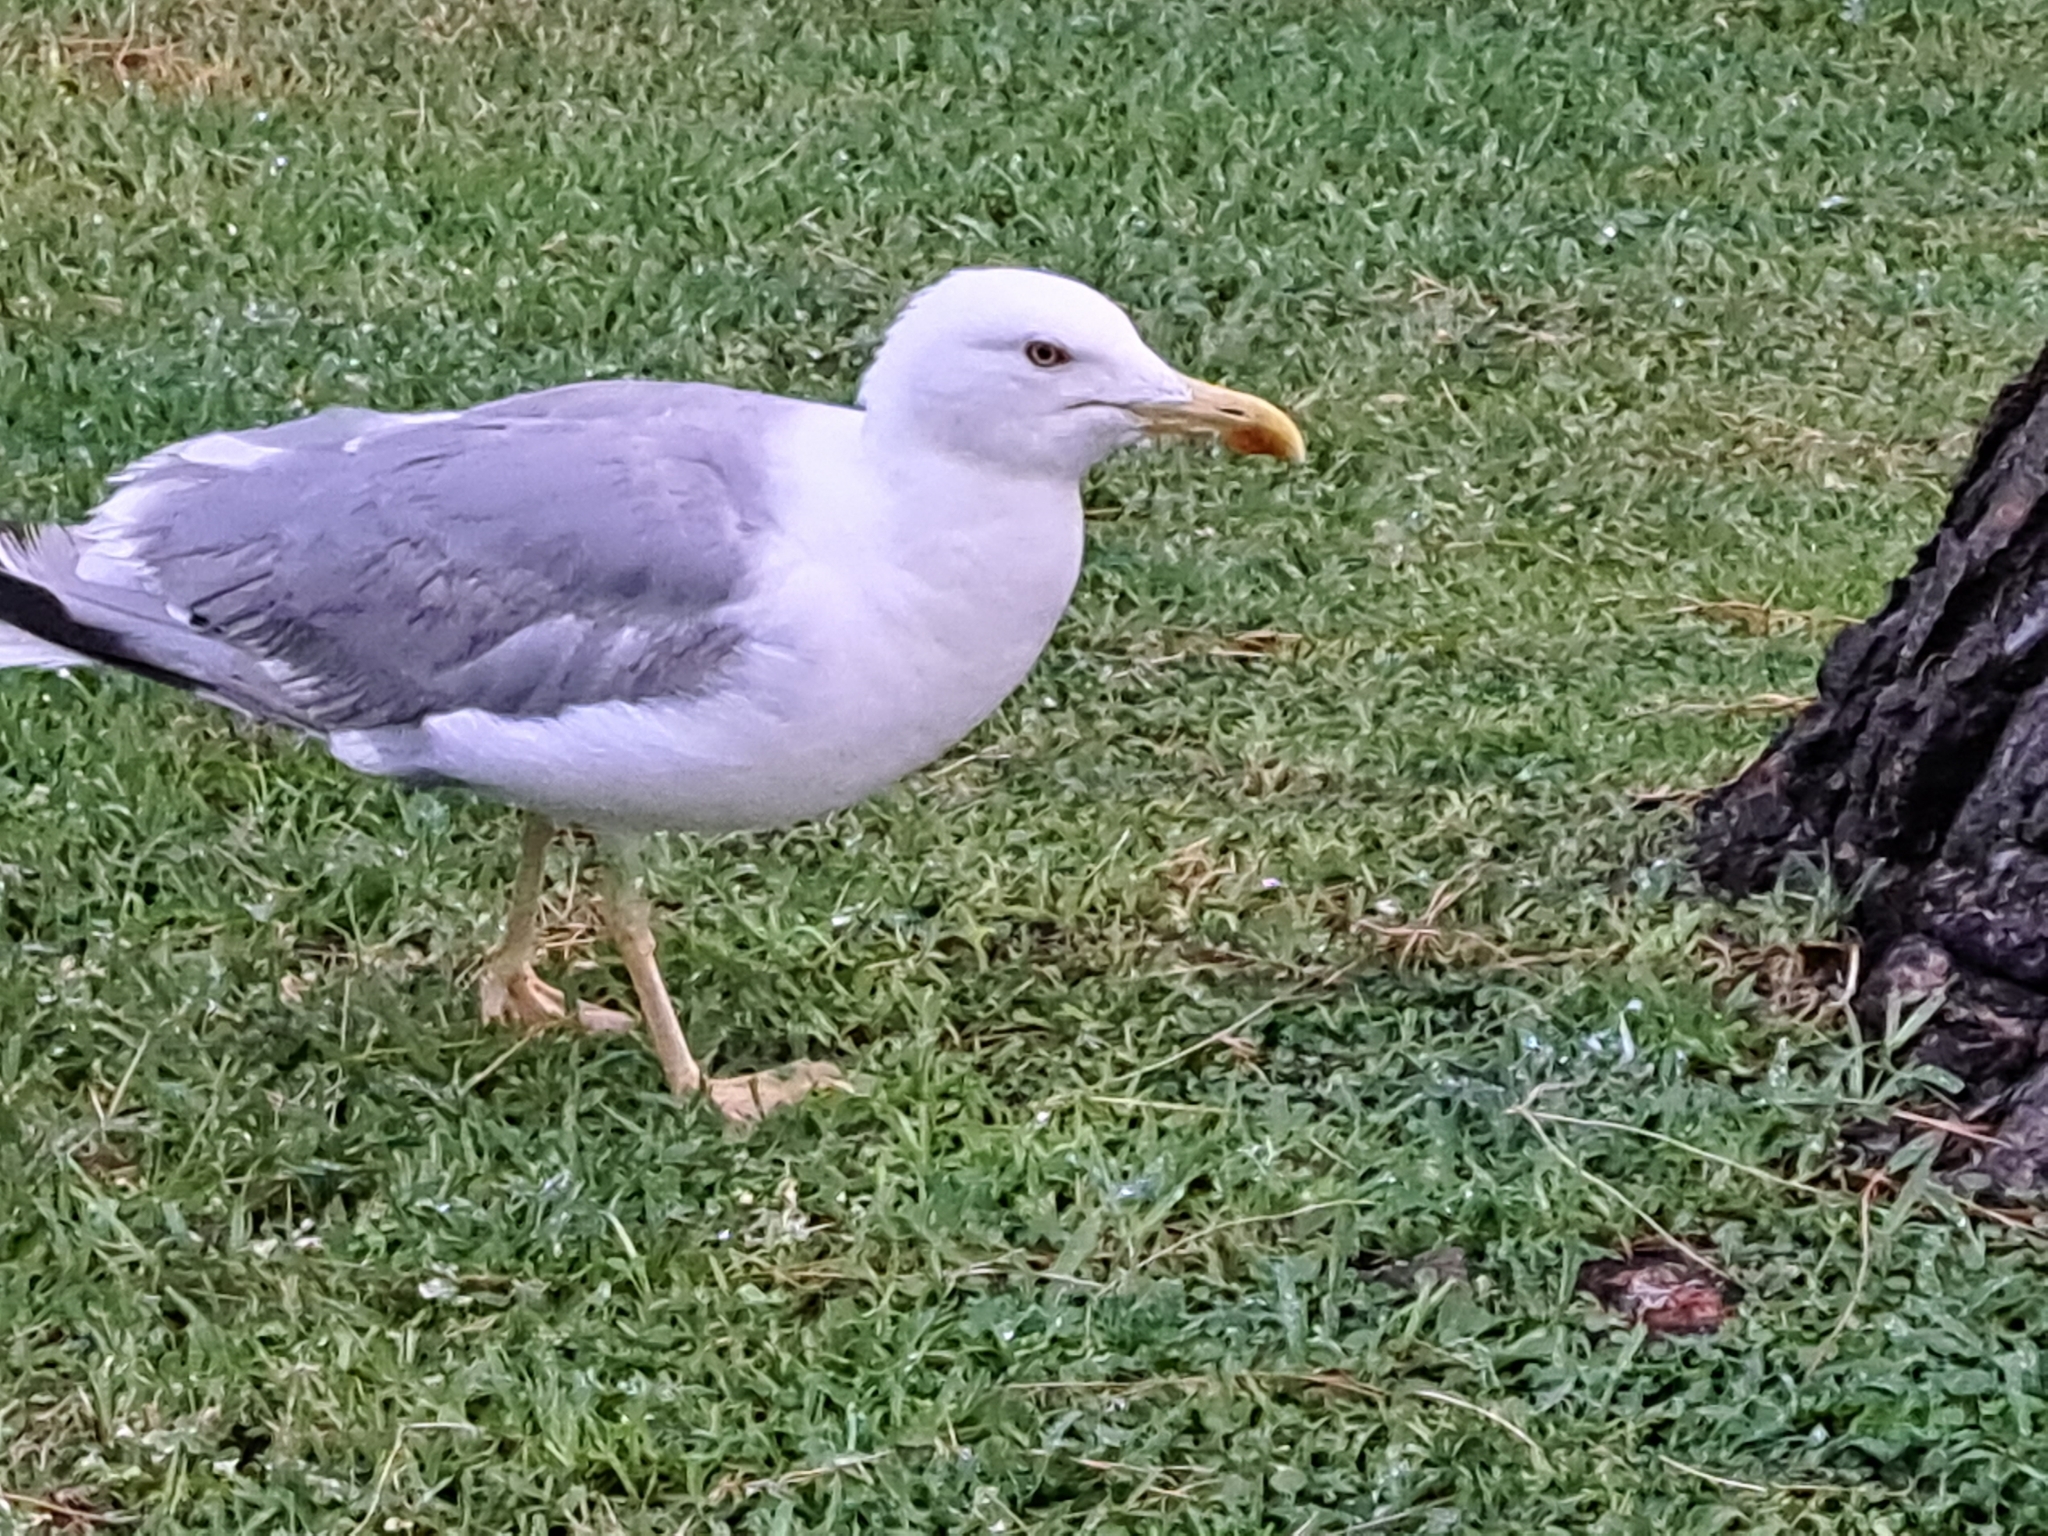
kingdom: Animalia
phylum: Chordata
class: Aves
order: Charadriiformes
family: Laridae
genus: Larus
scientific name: Larus michahellis
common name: Yellow-legged gull
